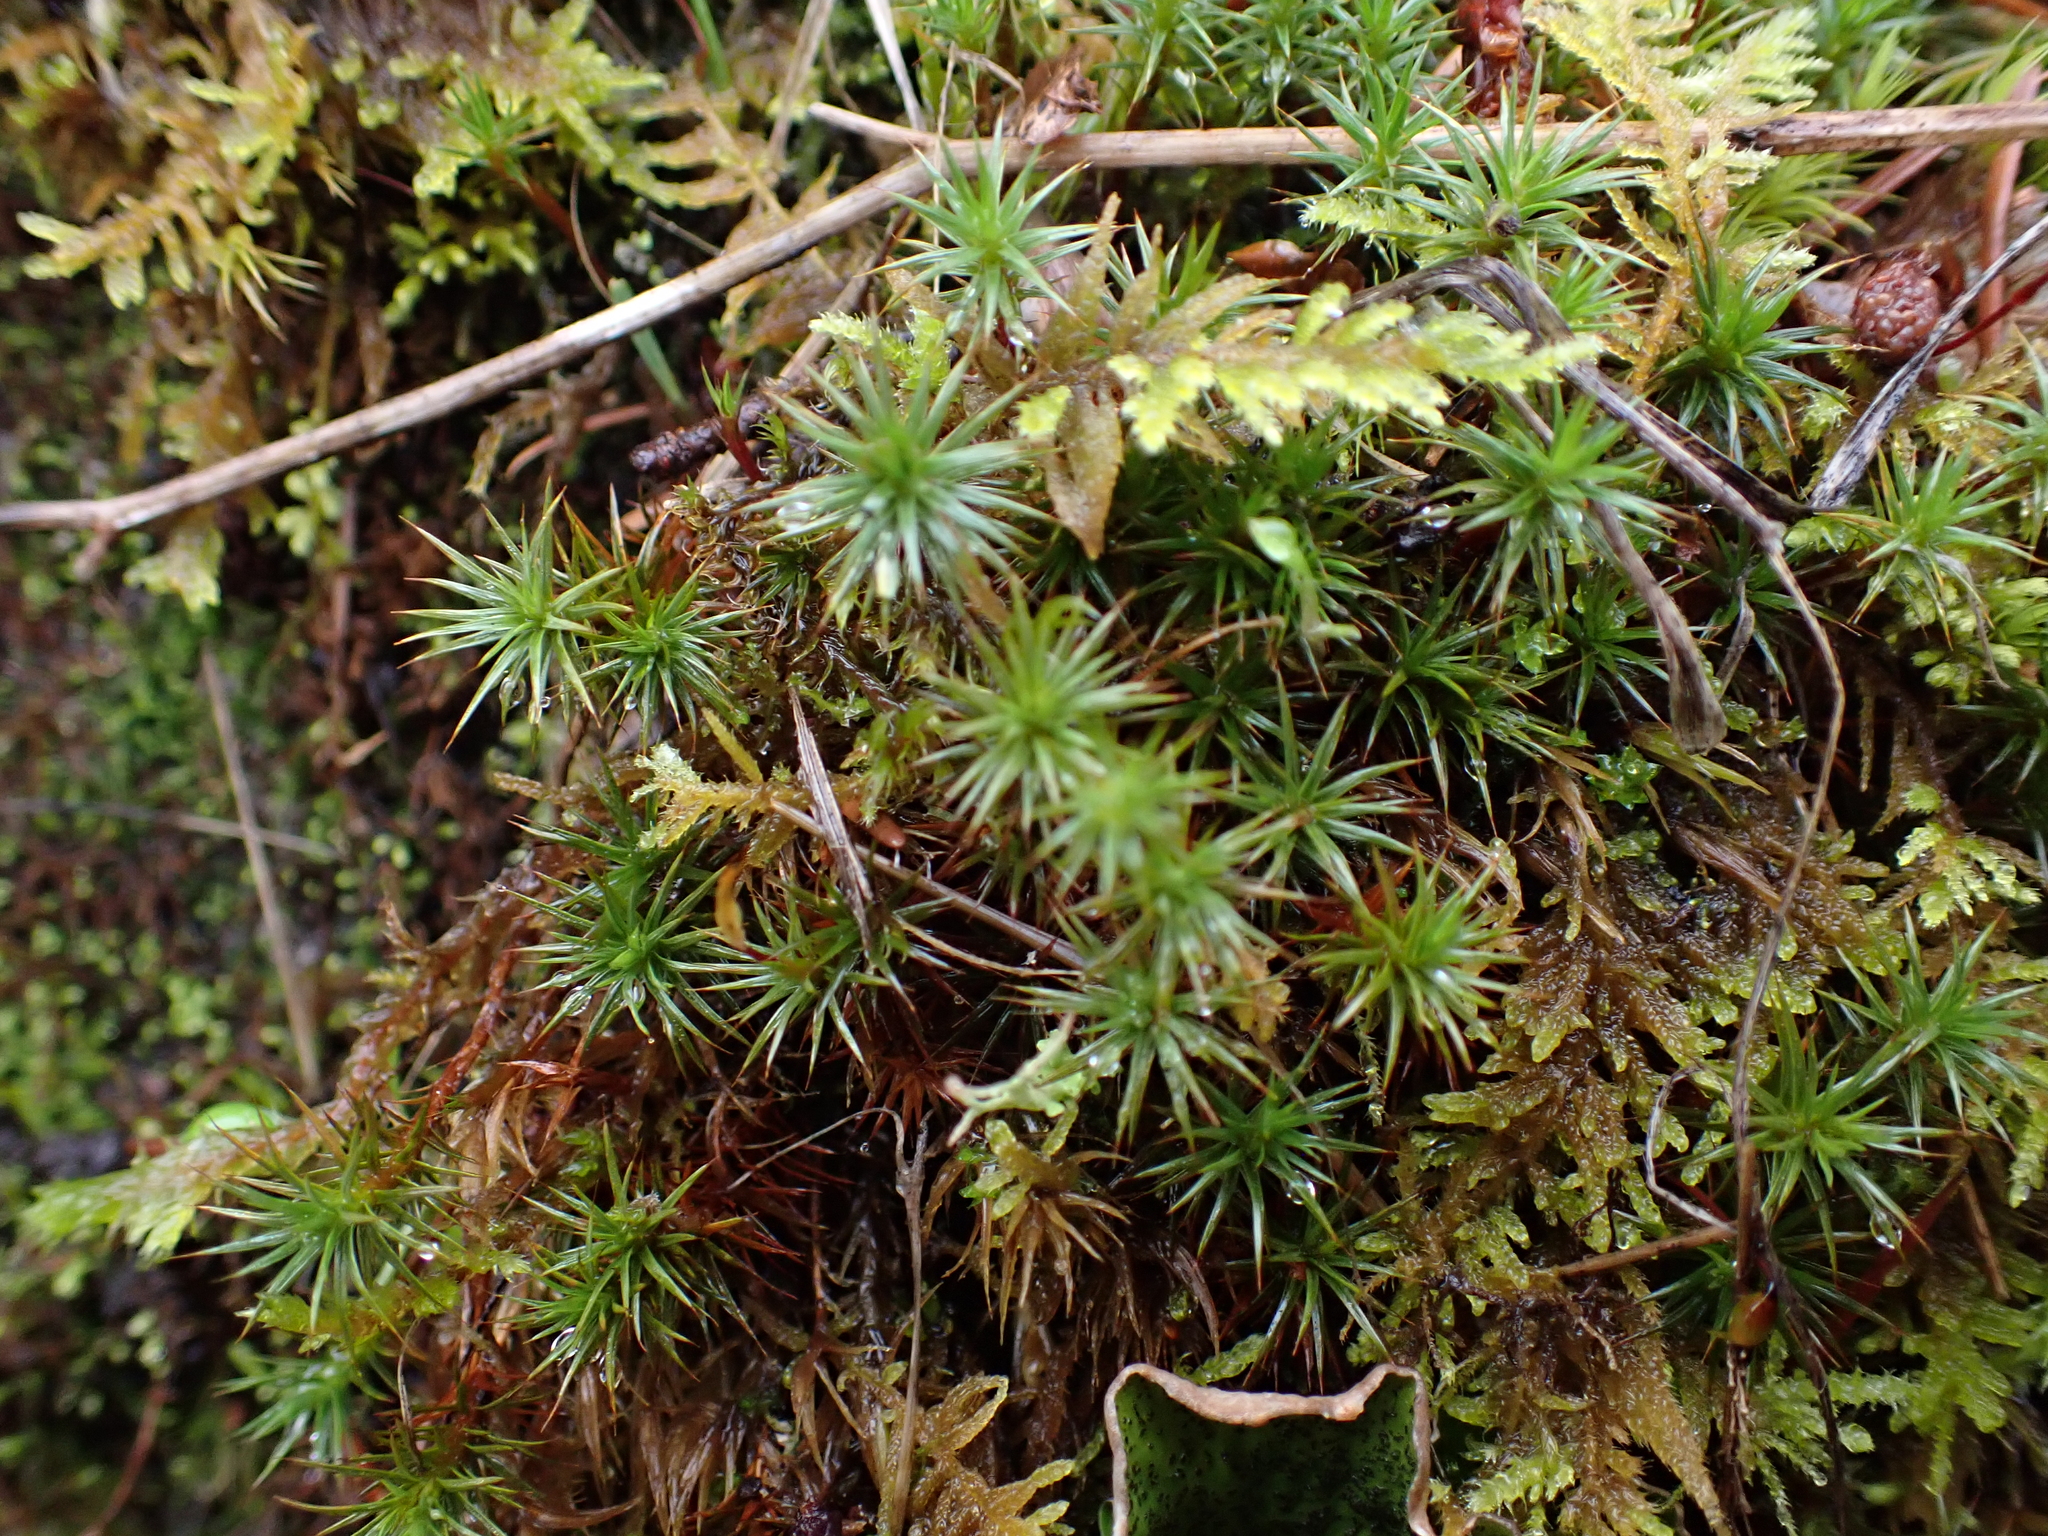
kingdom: Plantae
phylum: Bryophyta
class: Polytrichopsida
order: Polytrichales
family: Polytrichaceae
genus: Polytrichum
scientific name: Polytrichum juniperinum
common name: Juniper haircap moss
